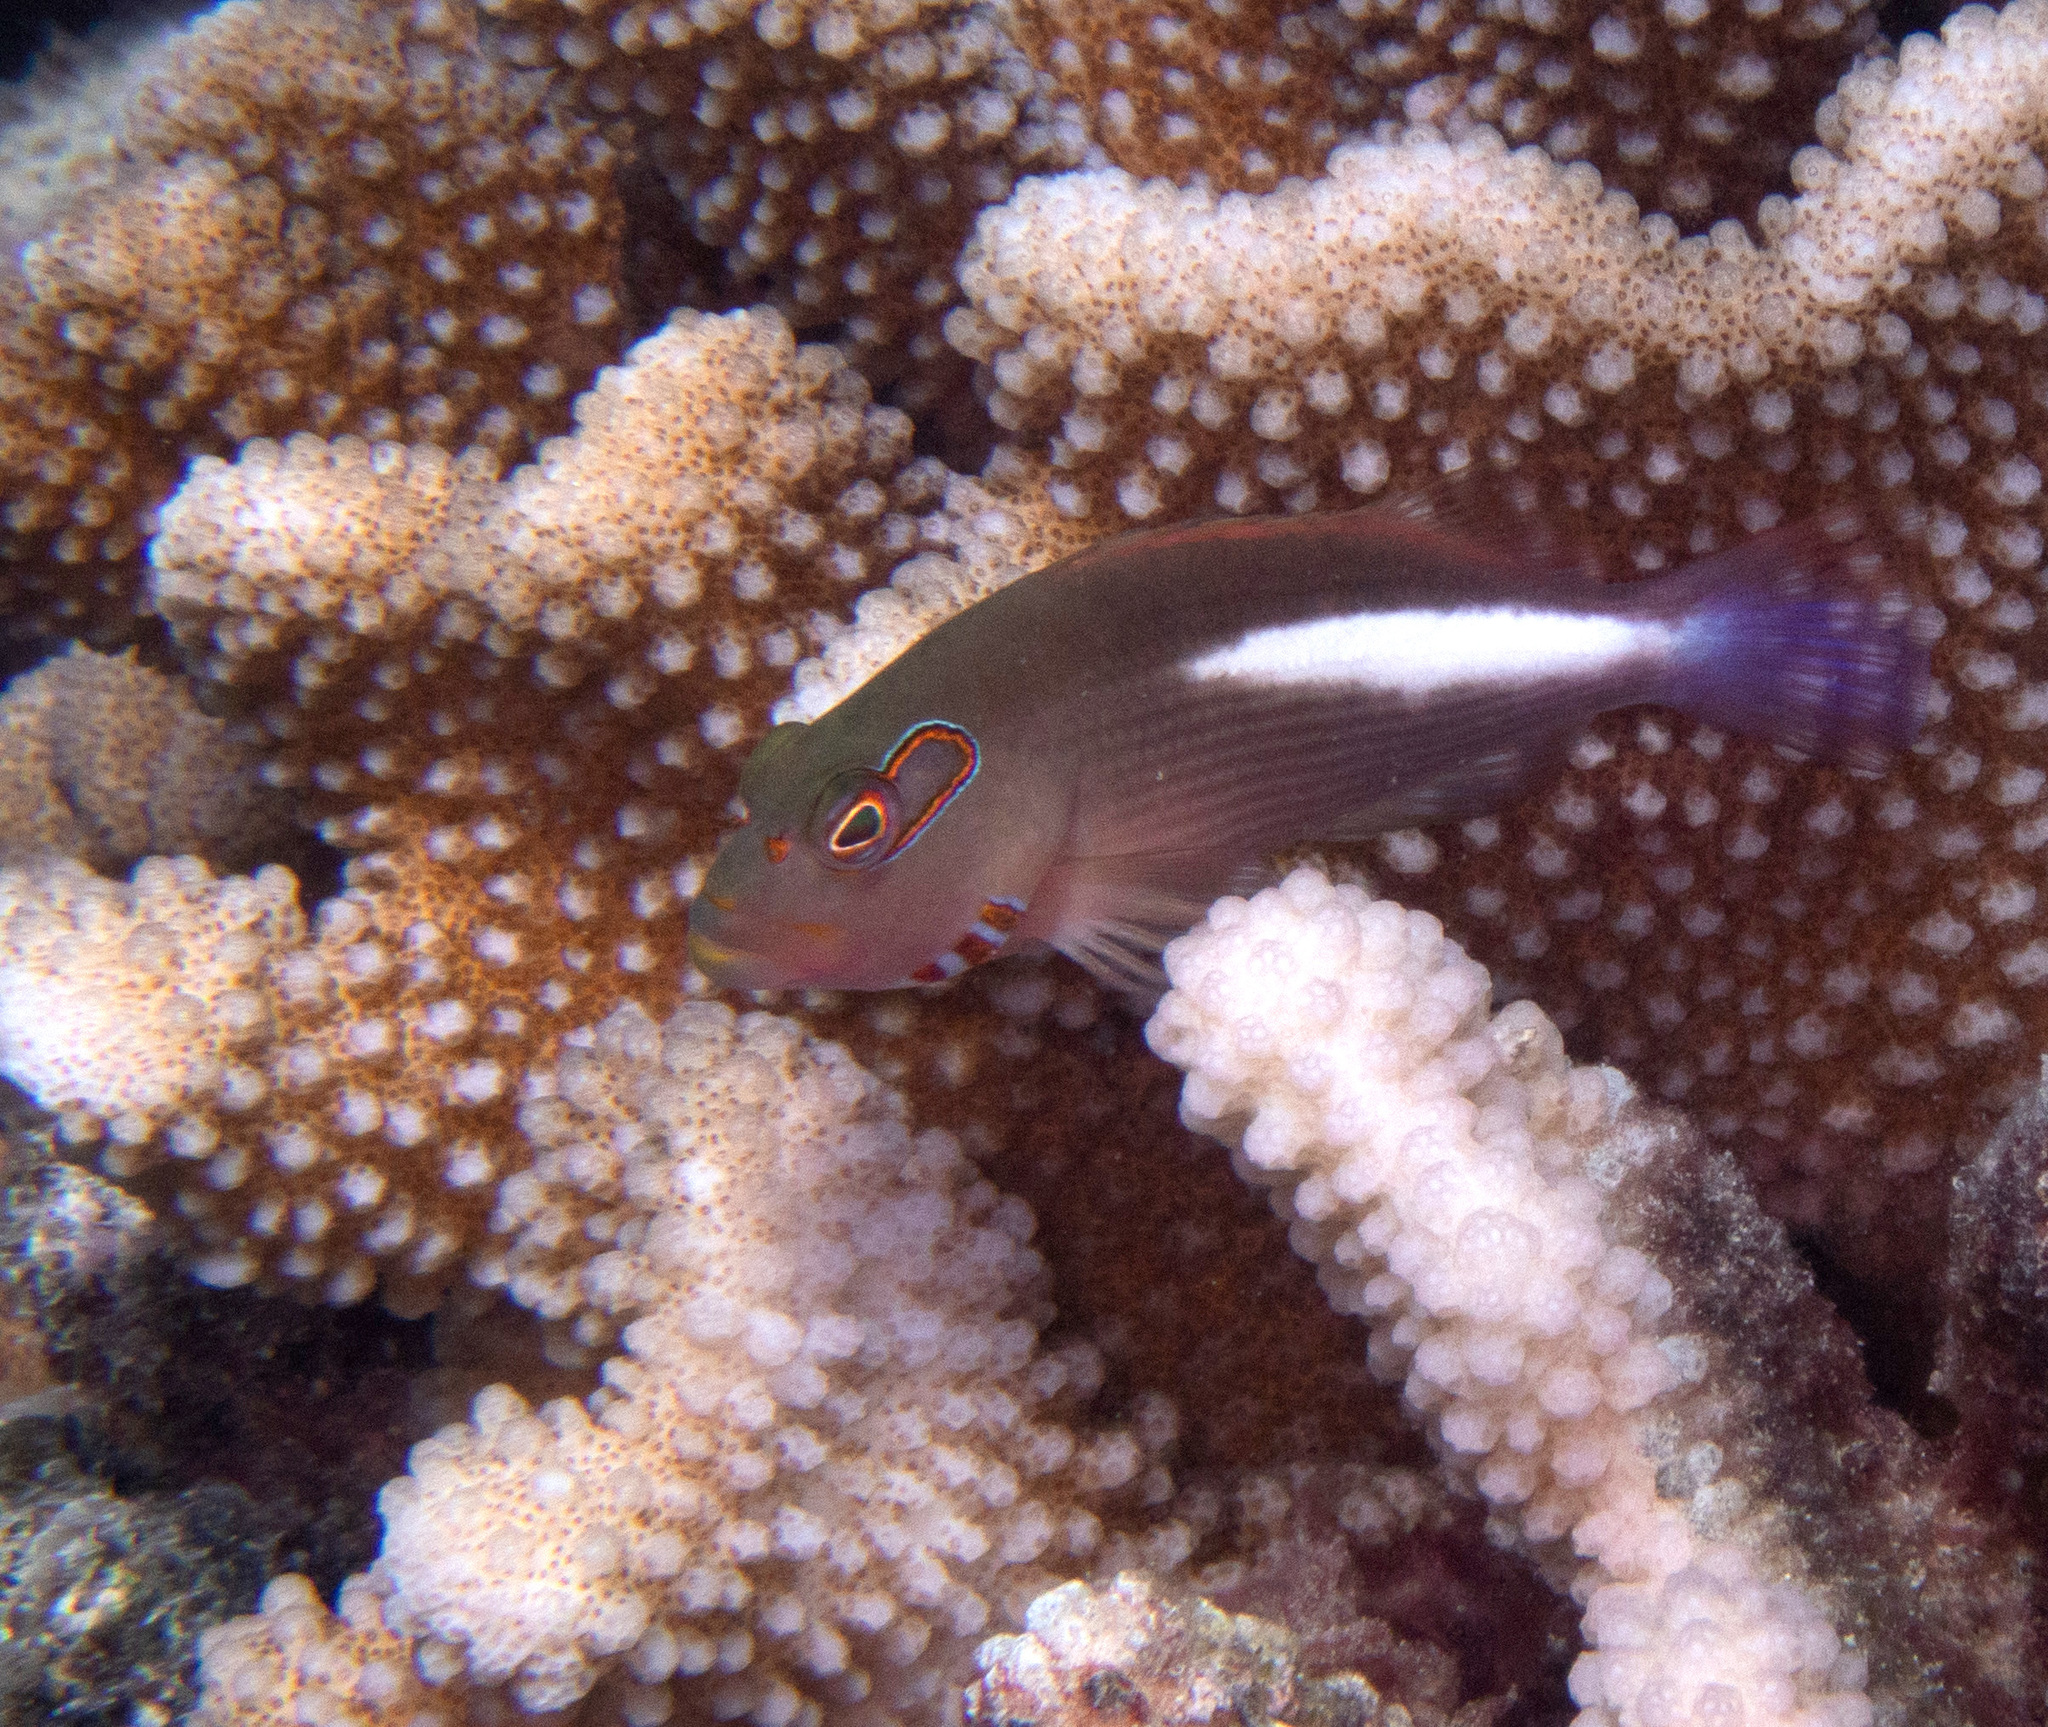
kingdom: Animalia
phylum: Chordata
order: Perciformes
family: Cirrhitidae
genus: Paracirrhites
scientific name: Paracirrhites arcatus
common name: Arc-eye hawkfish
